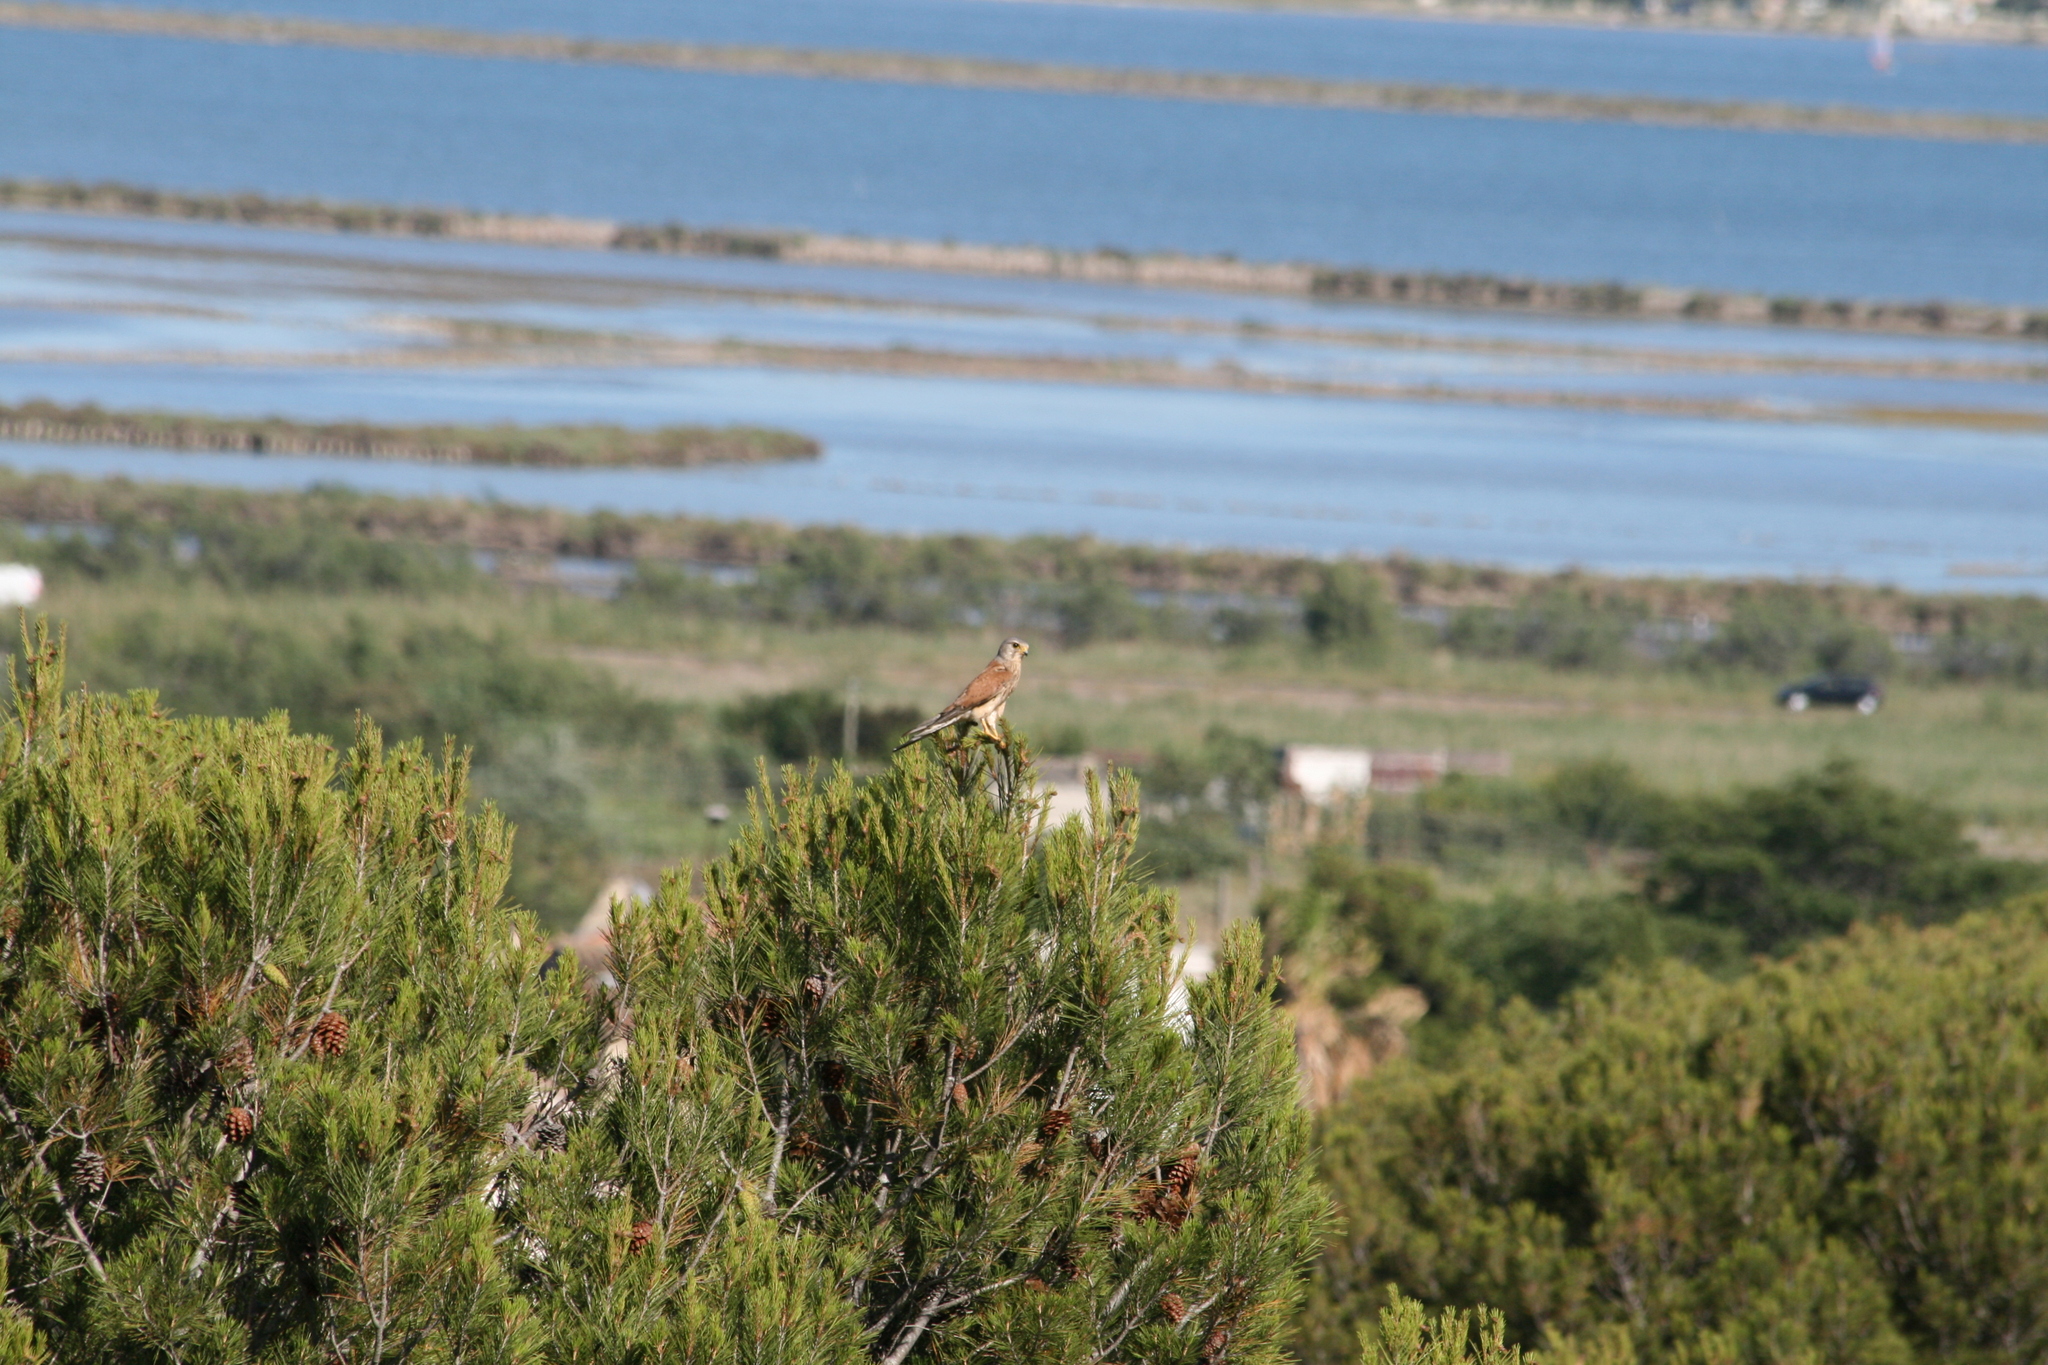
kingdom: Animalia
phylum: Chordata
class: Aves
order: Falconiformes
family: Falconidae
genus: Falco
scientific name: Falco tinnunculus
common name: Common kestrel
